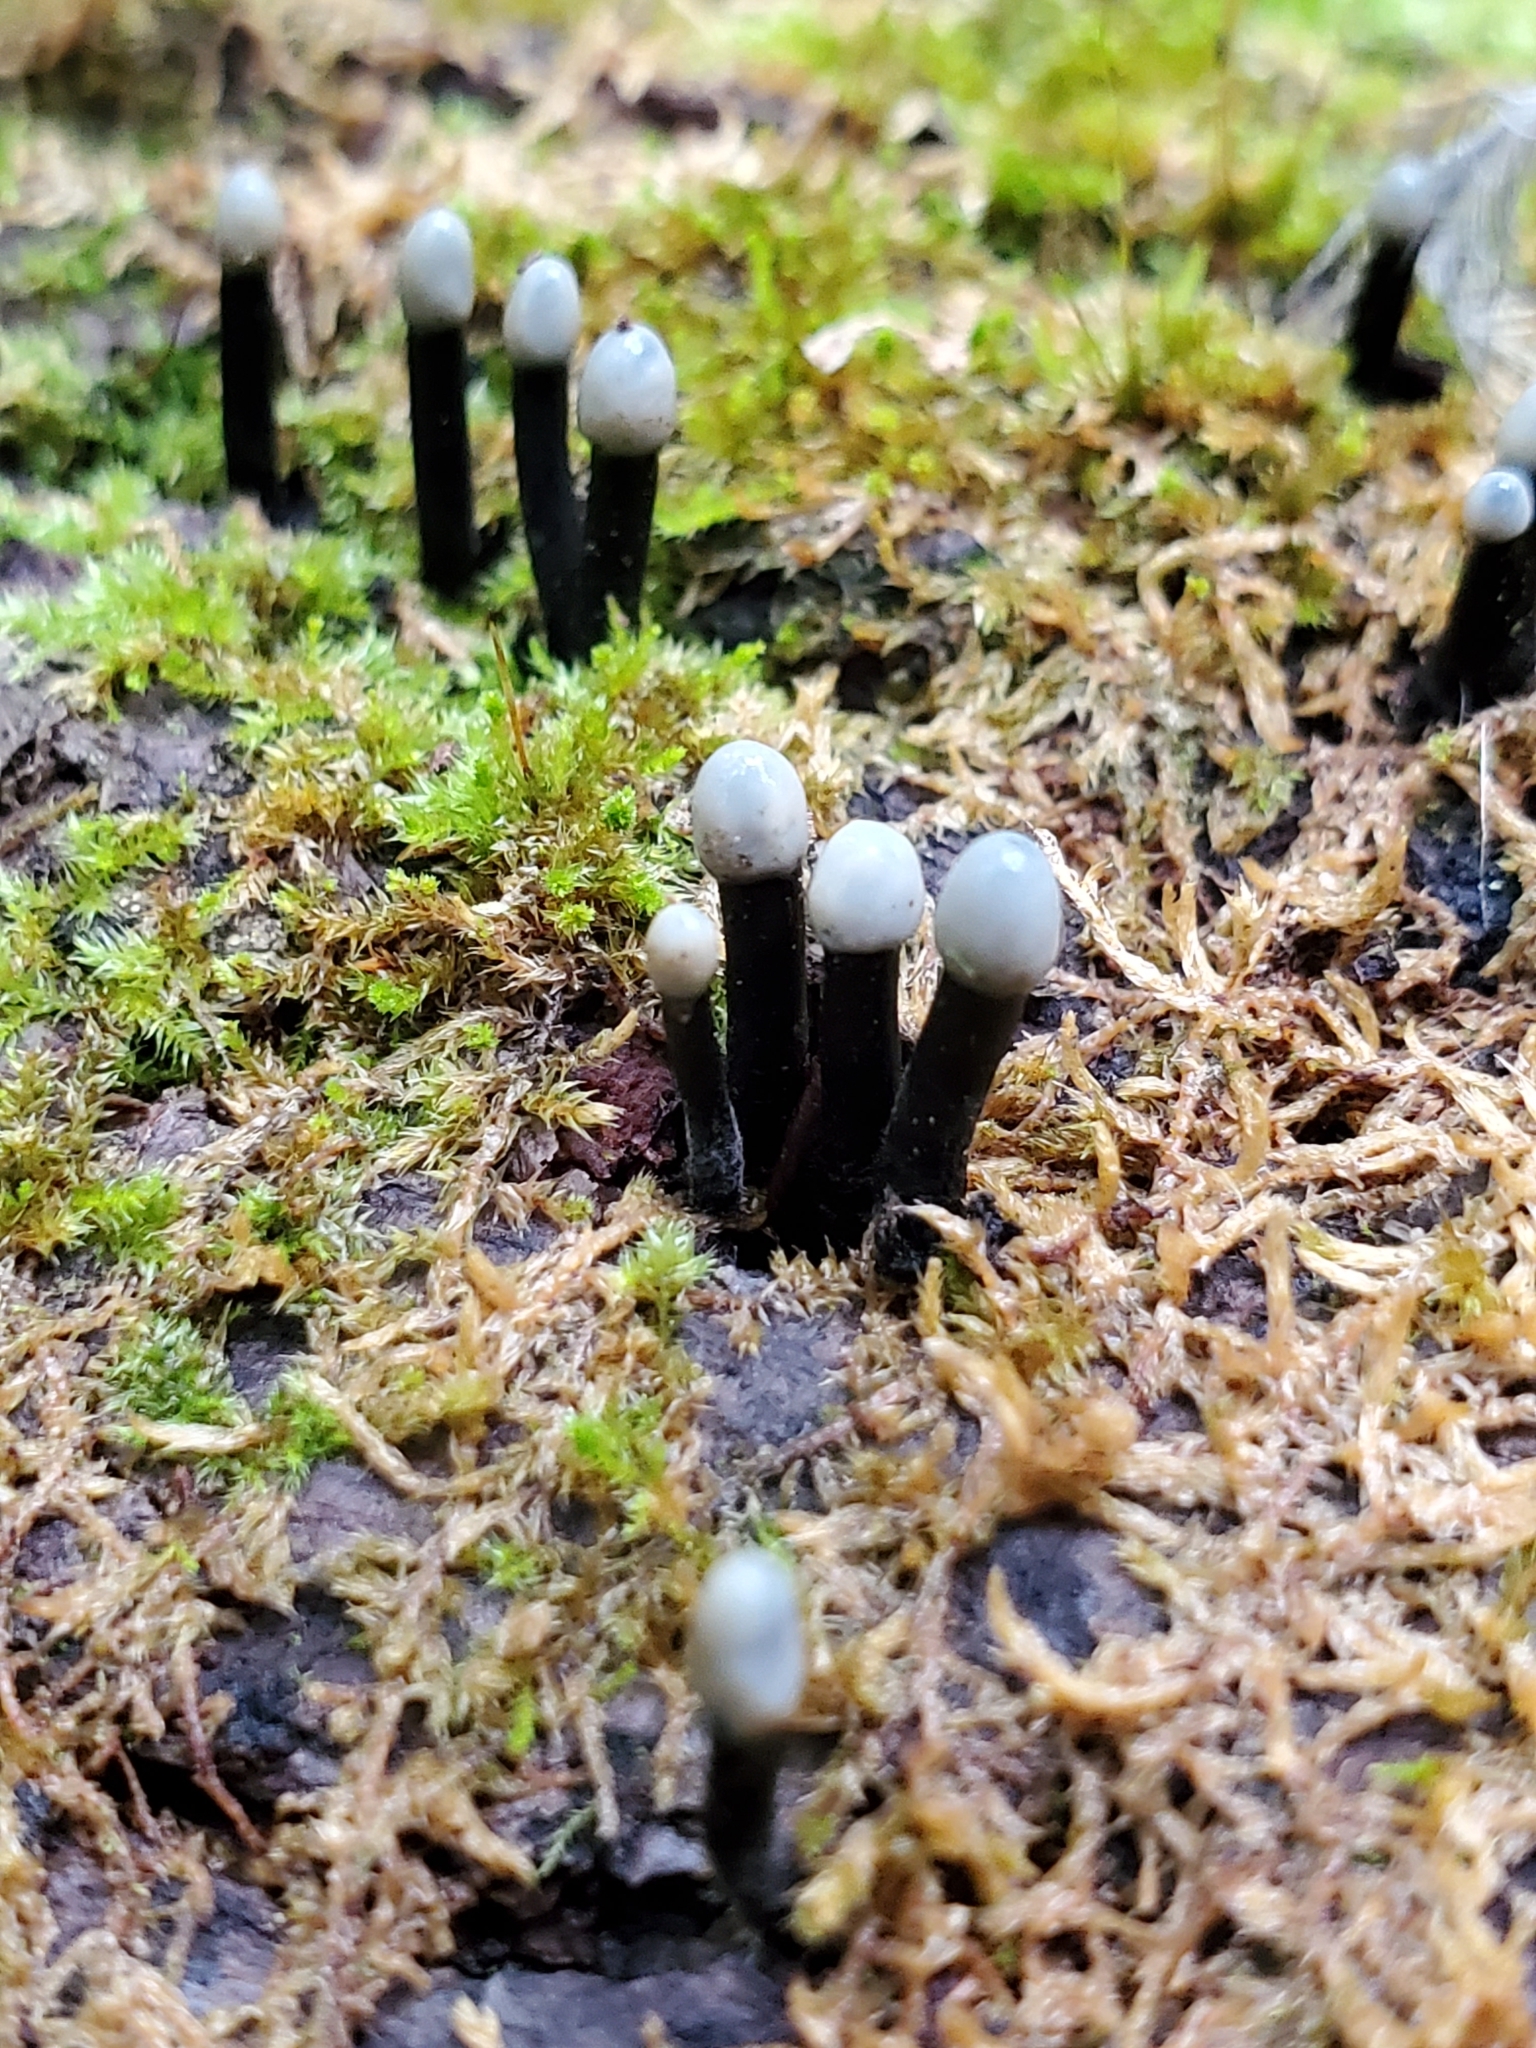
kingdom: Fungi
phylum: Ascomycota
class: Leotiomycetes
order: Helotiales
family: Bulgariaceae
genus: Holwaya
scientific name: Holwaya mucida
